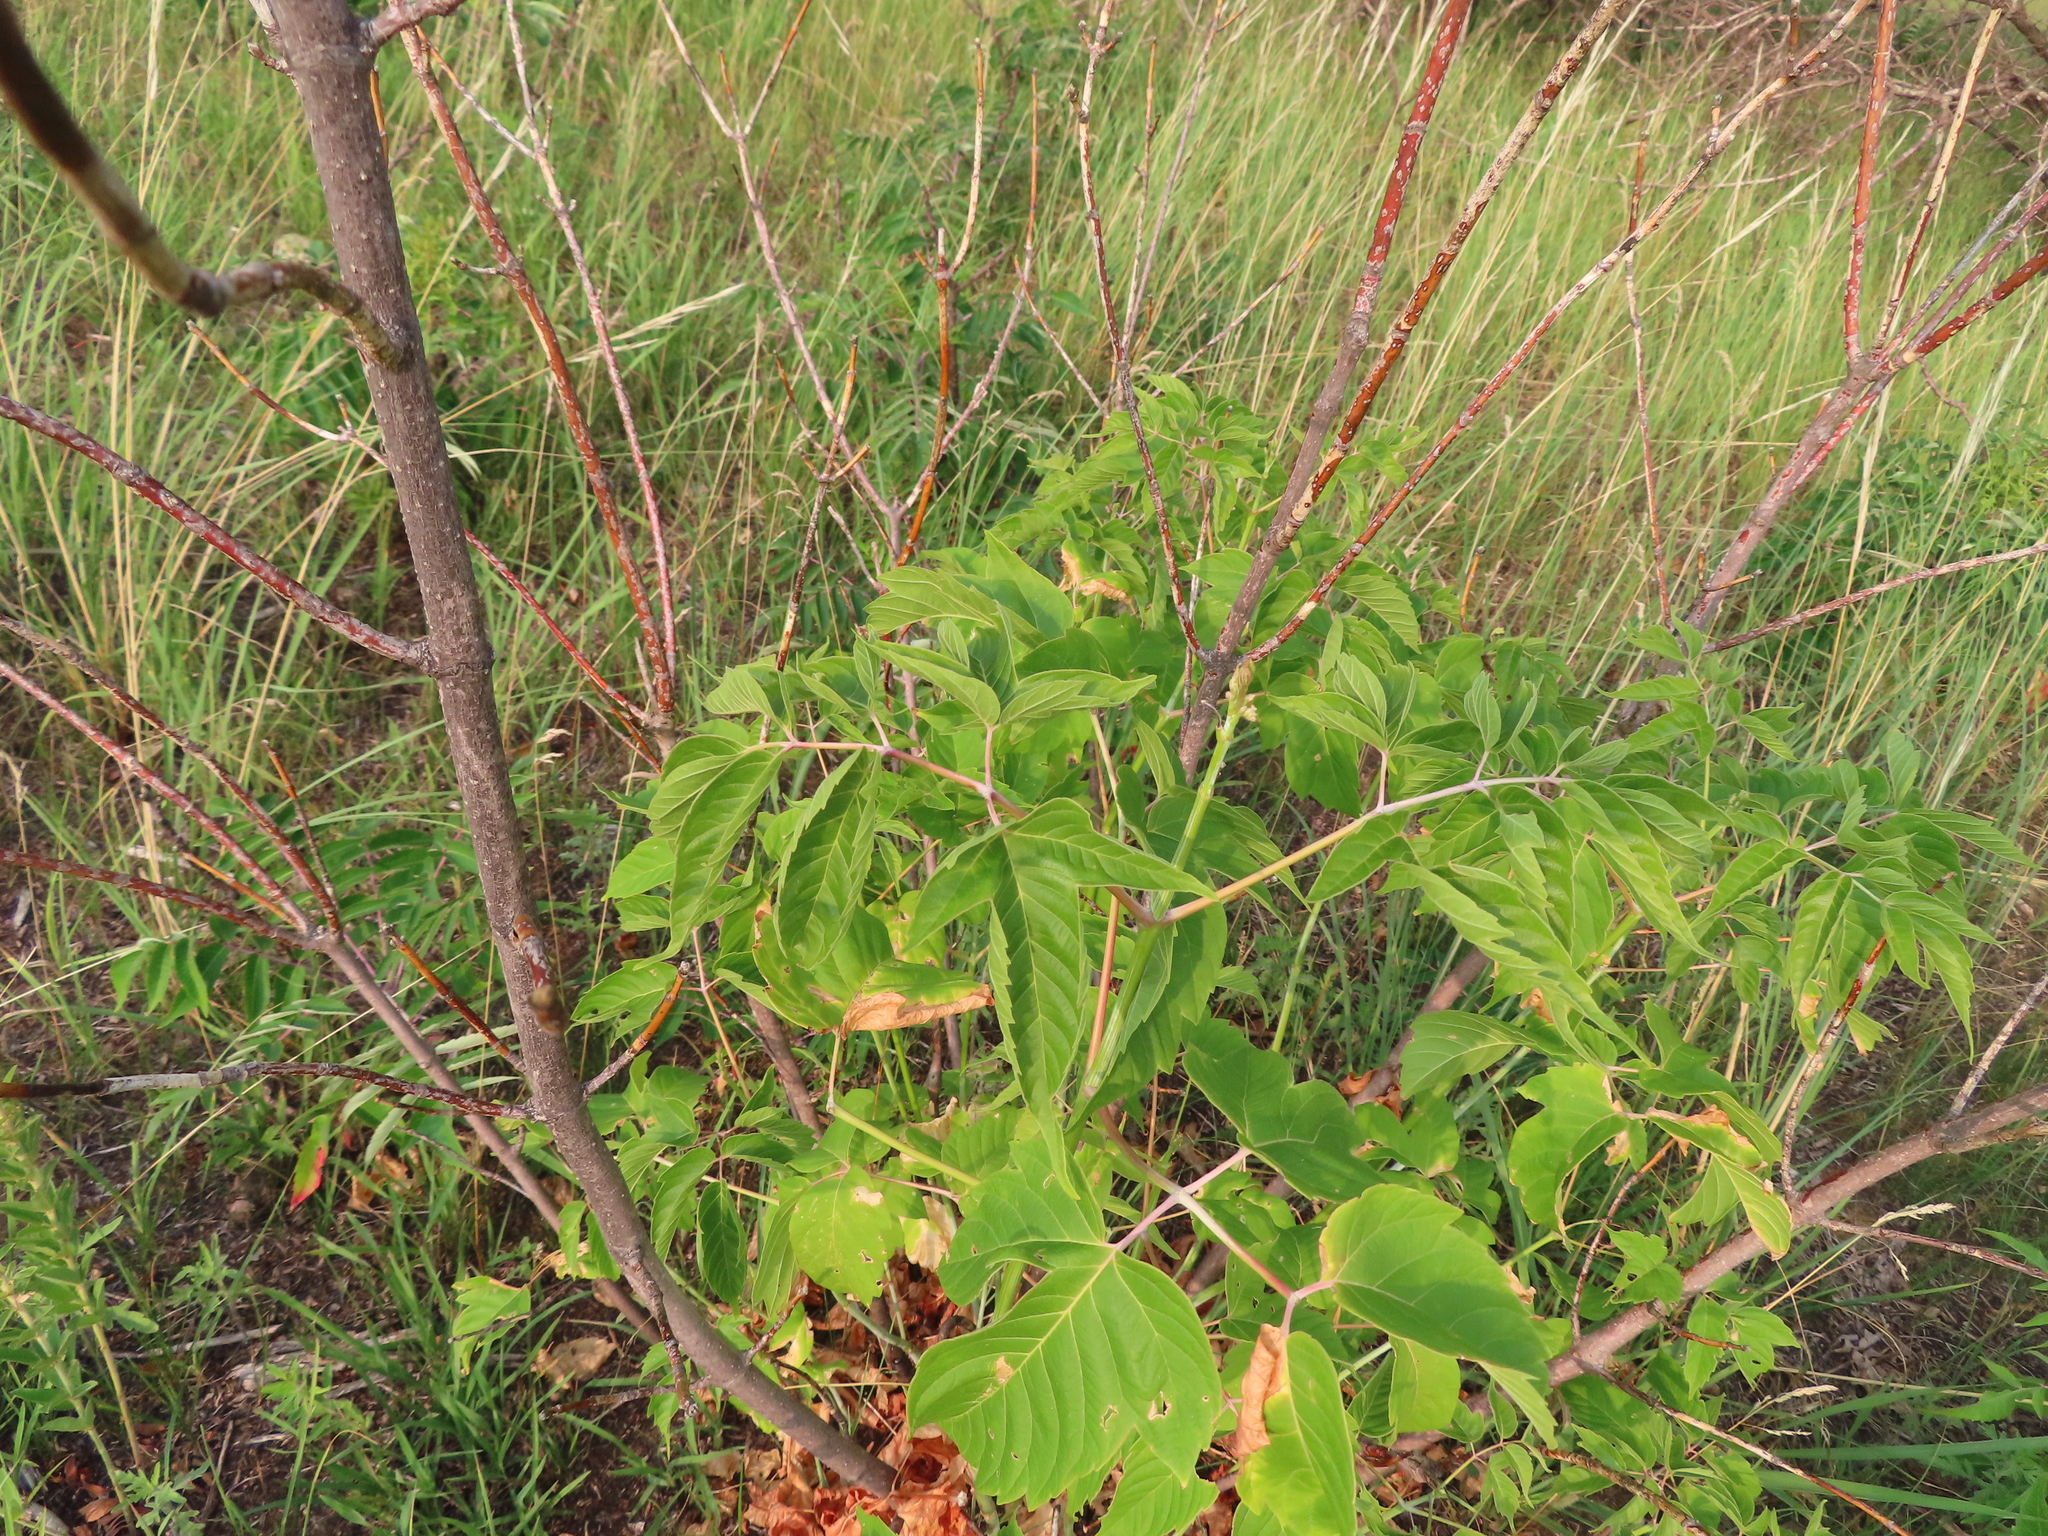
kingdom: Plantae
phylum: Tracheophyta
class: Magnoliopsida
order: Sapindales
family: Sapindaceae
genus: Acer
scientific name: Acer negundo
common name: Ashleaf maple
